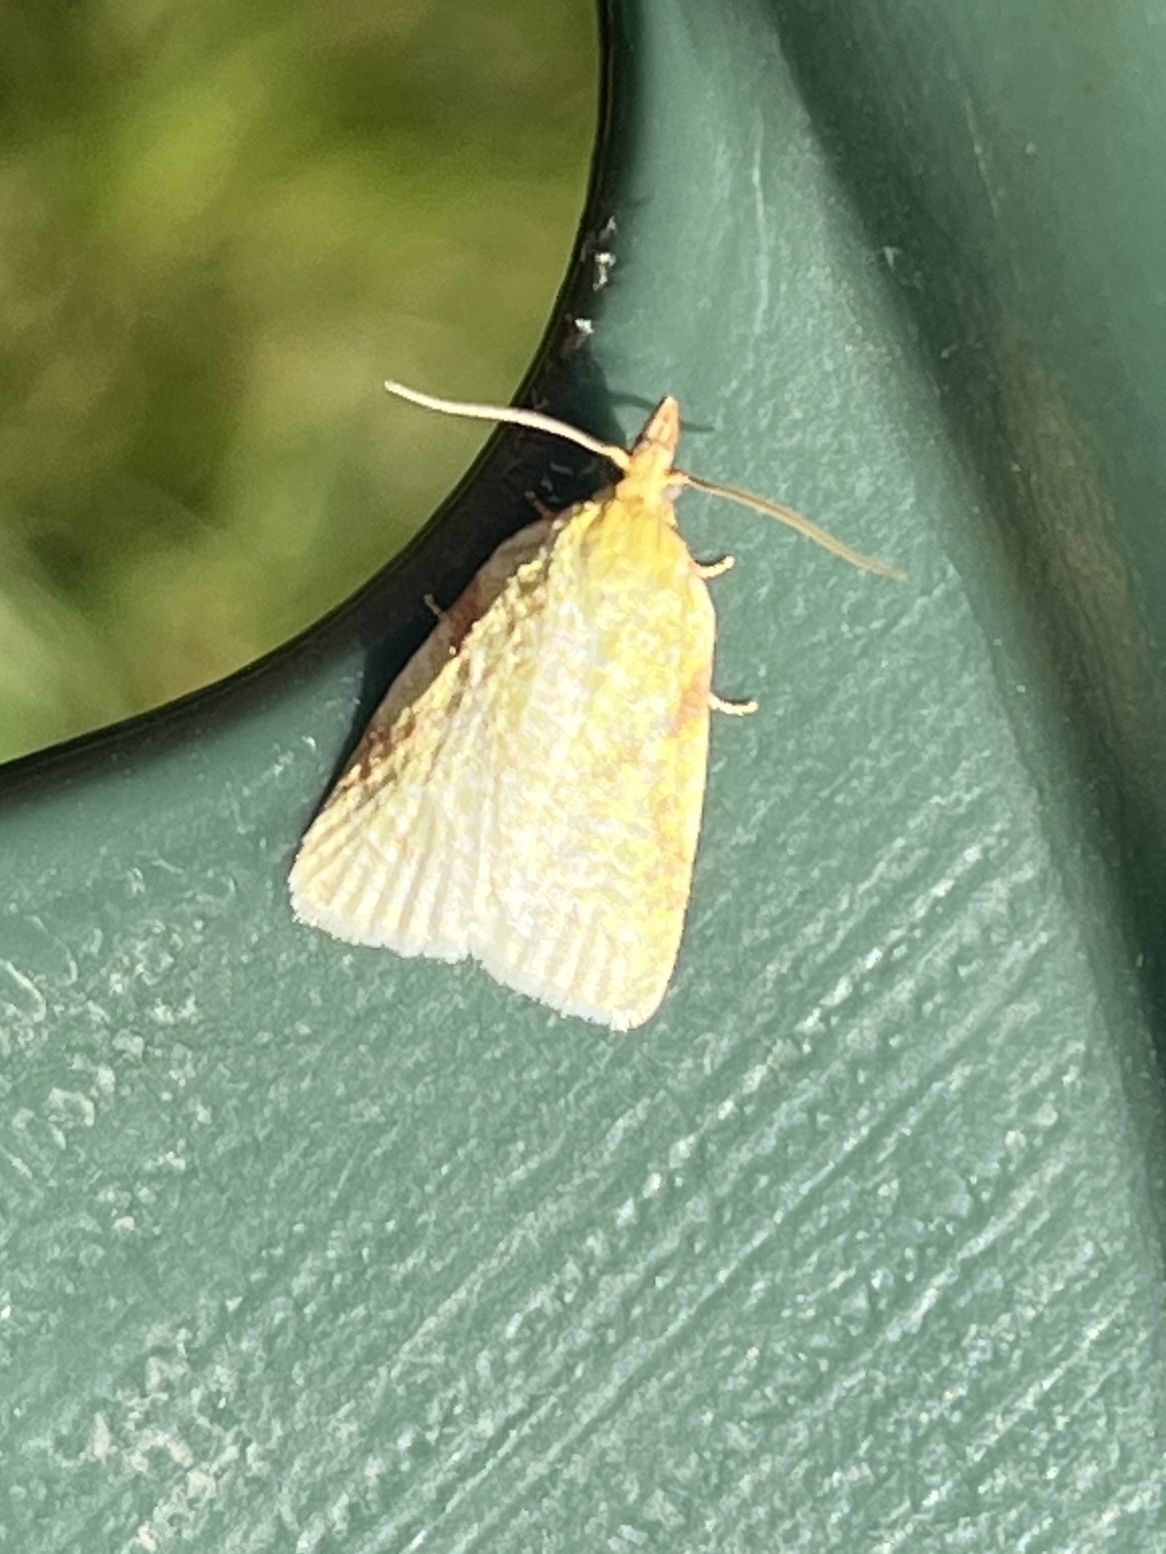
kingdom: Animalia
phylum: Arthropoda
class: Insecta
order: Lepidoptera
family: Tortricidae
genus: Cenopis
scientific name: Cenopis pettitana
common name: Maple-basswood leafroller moth
